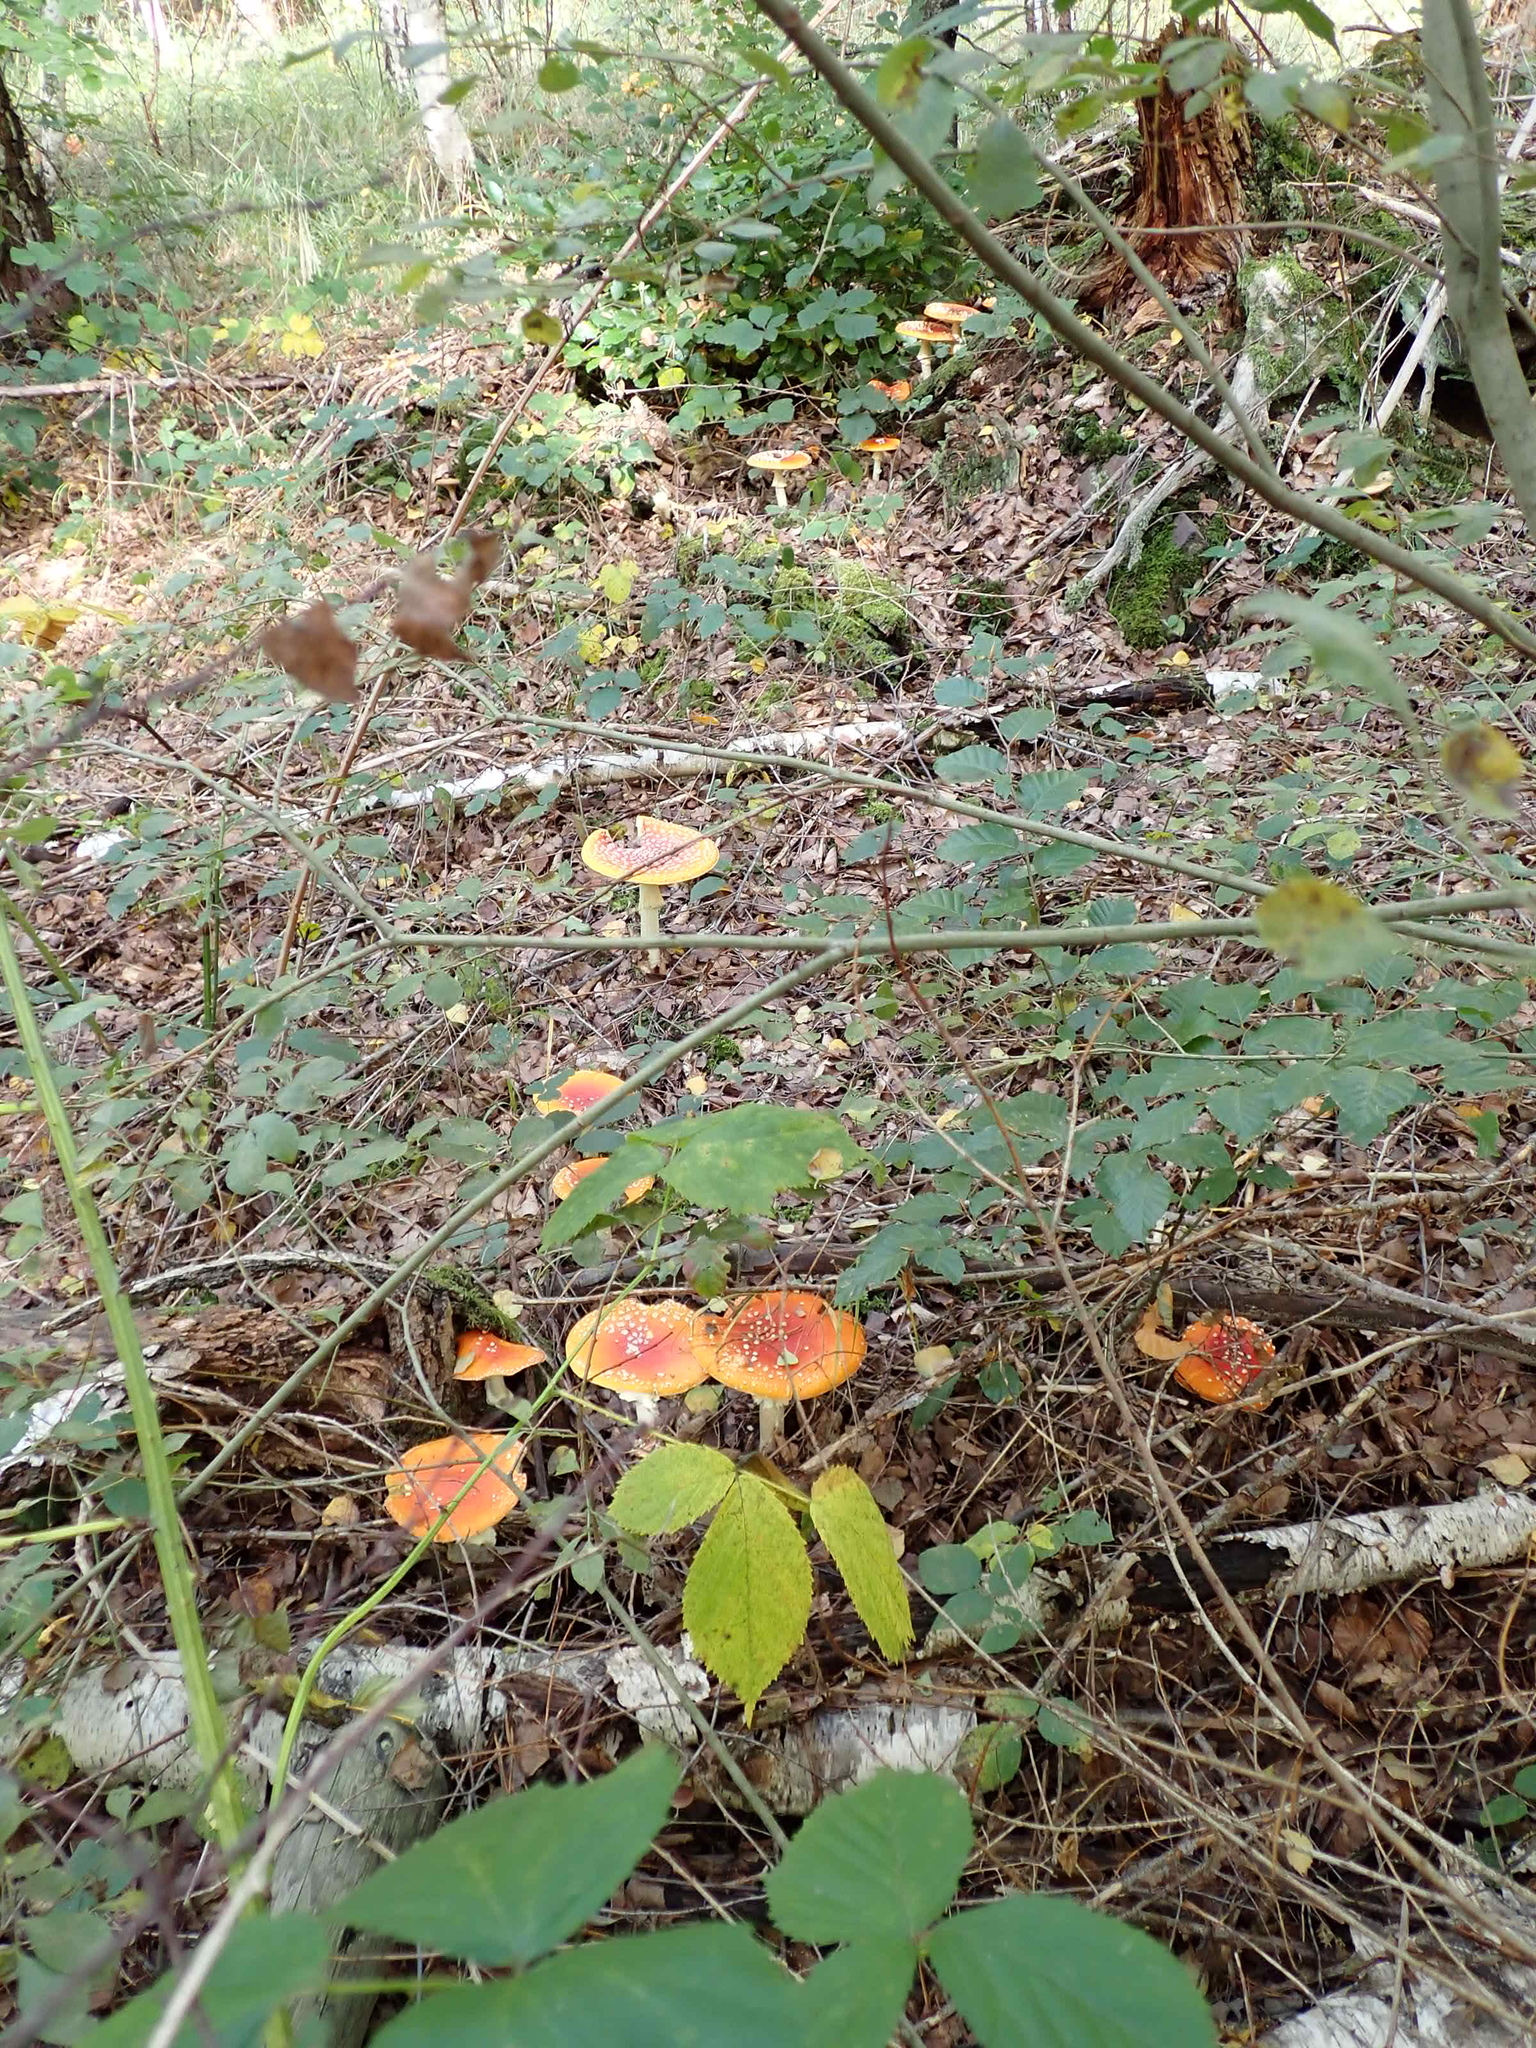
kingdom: Fungi
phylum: Basidiomycota
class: Agaricomycetes
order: Agaricales
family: Amanitaceae
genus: Amanita
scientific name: Amanita muscaria
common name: Fly agaric
